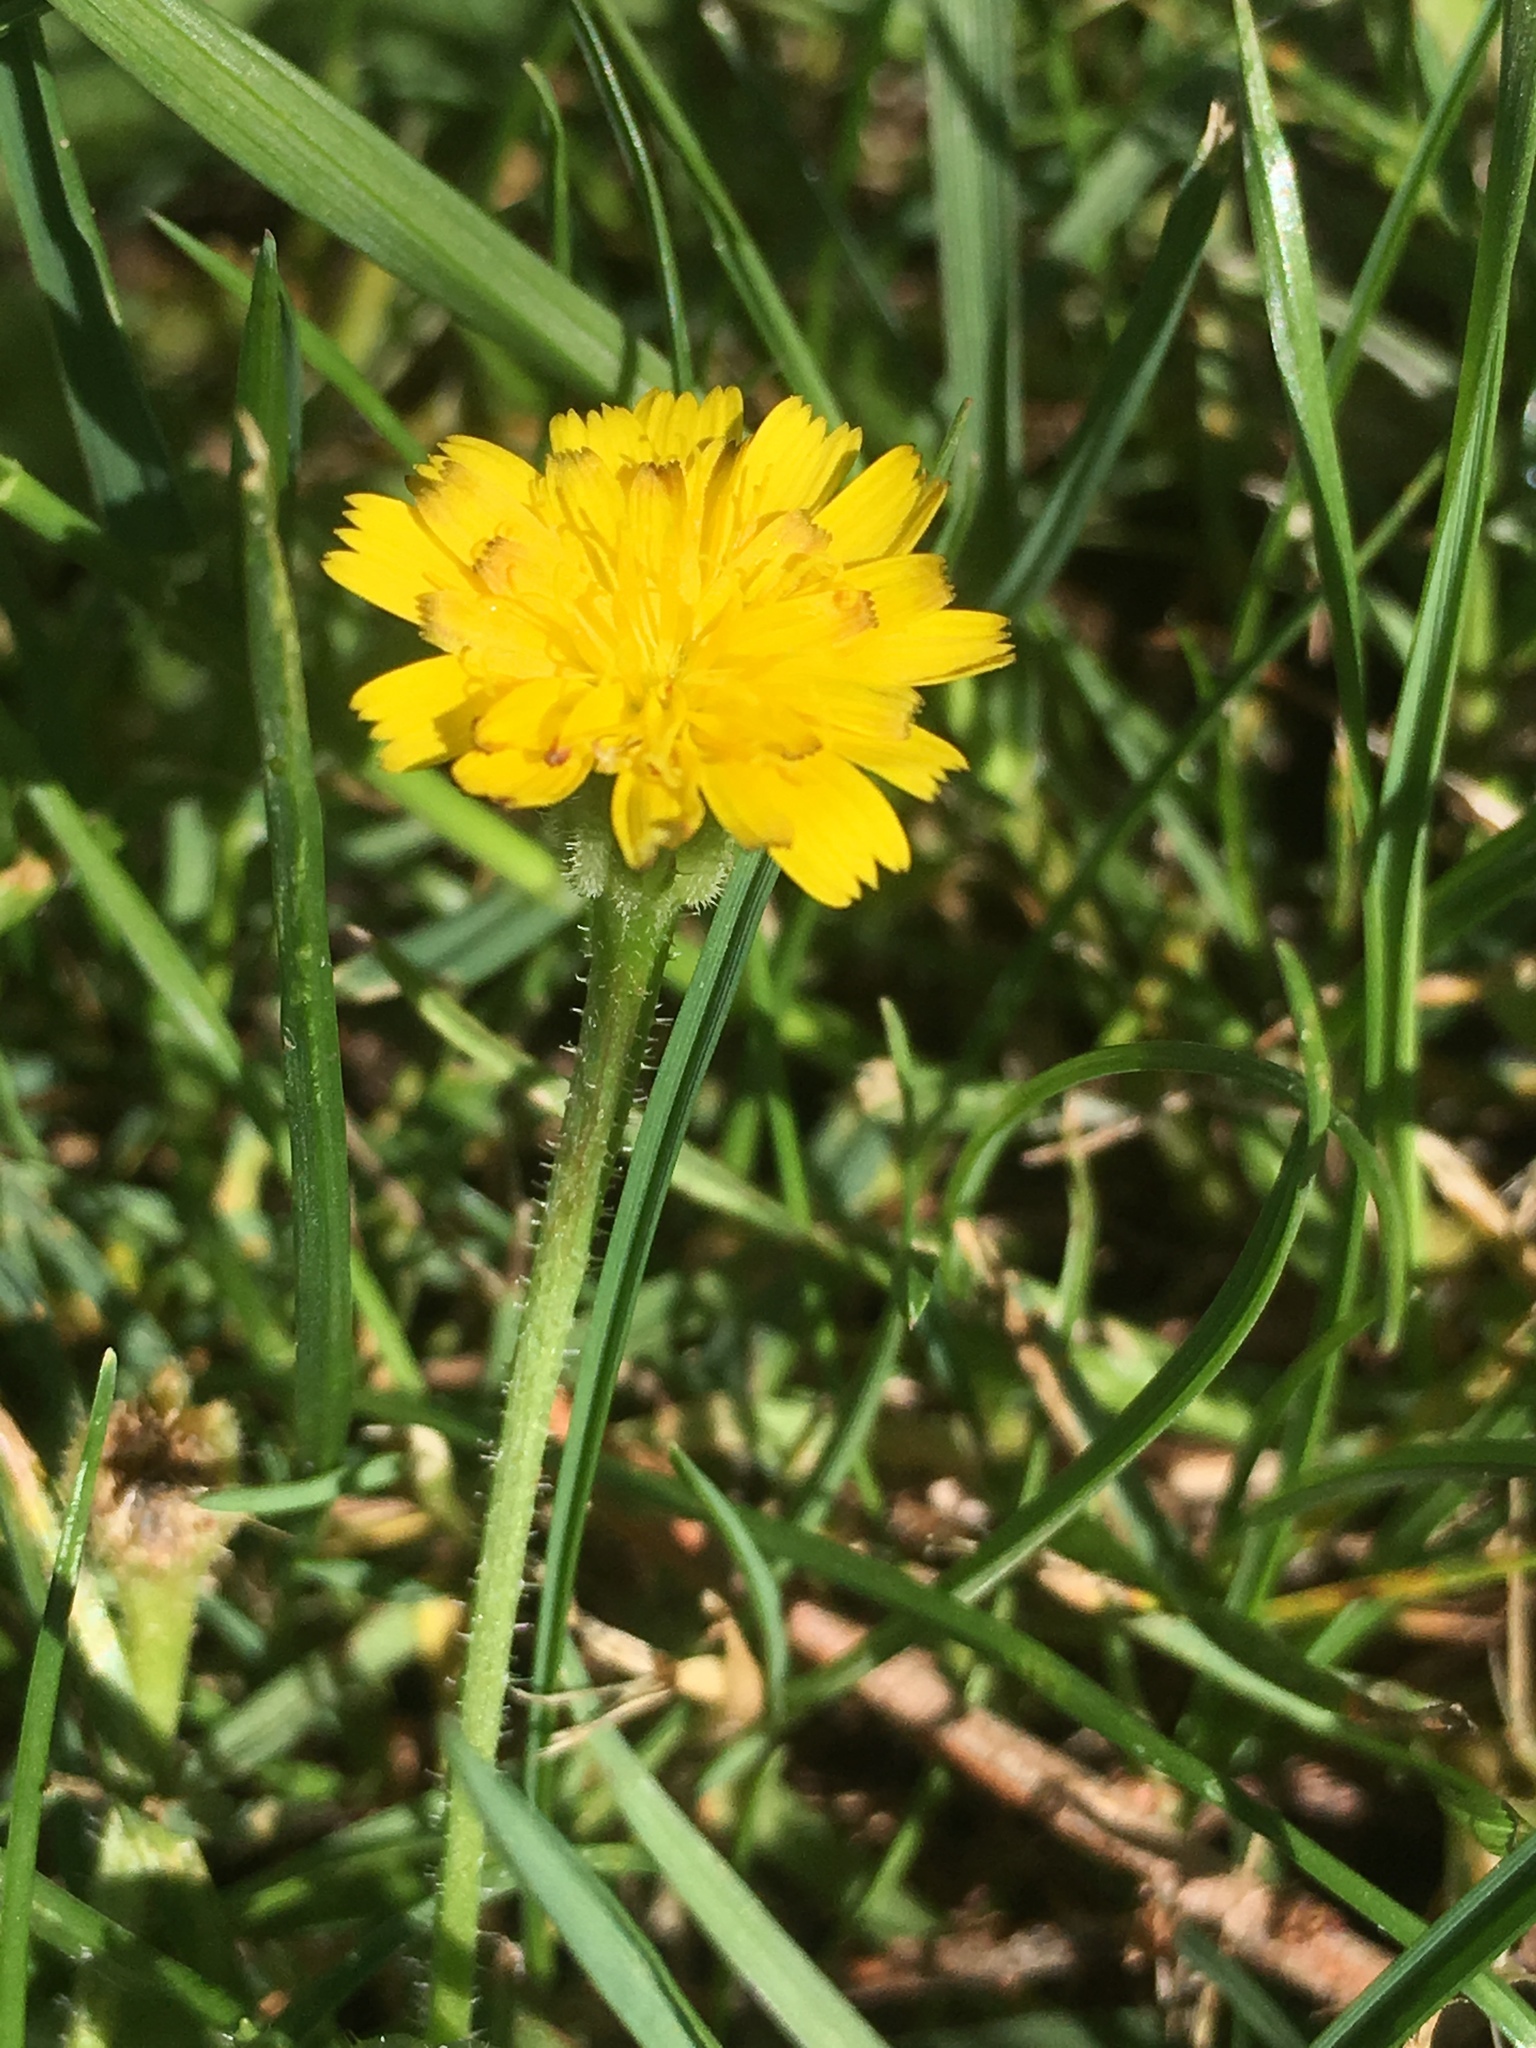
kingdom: Plantae
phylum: Tracheophyta
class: Magnoliopsida
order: Asterales
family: Asteraceae
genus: Hedypnois
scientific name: Hedypnois rhagadioloides
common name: Cretan weed
